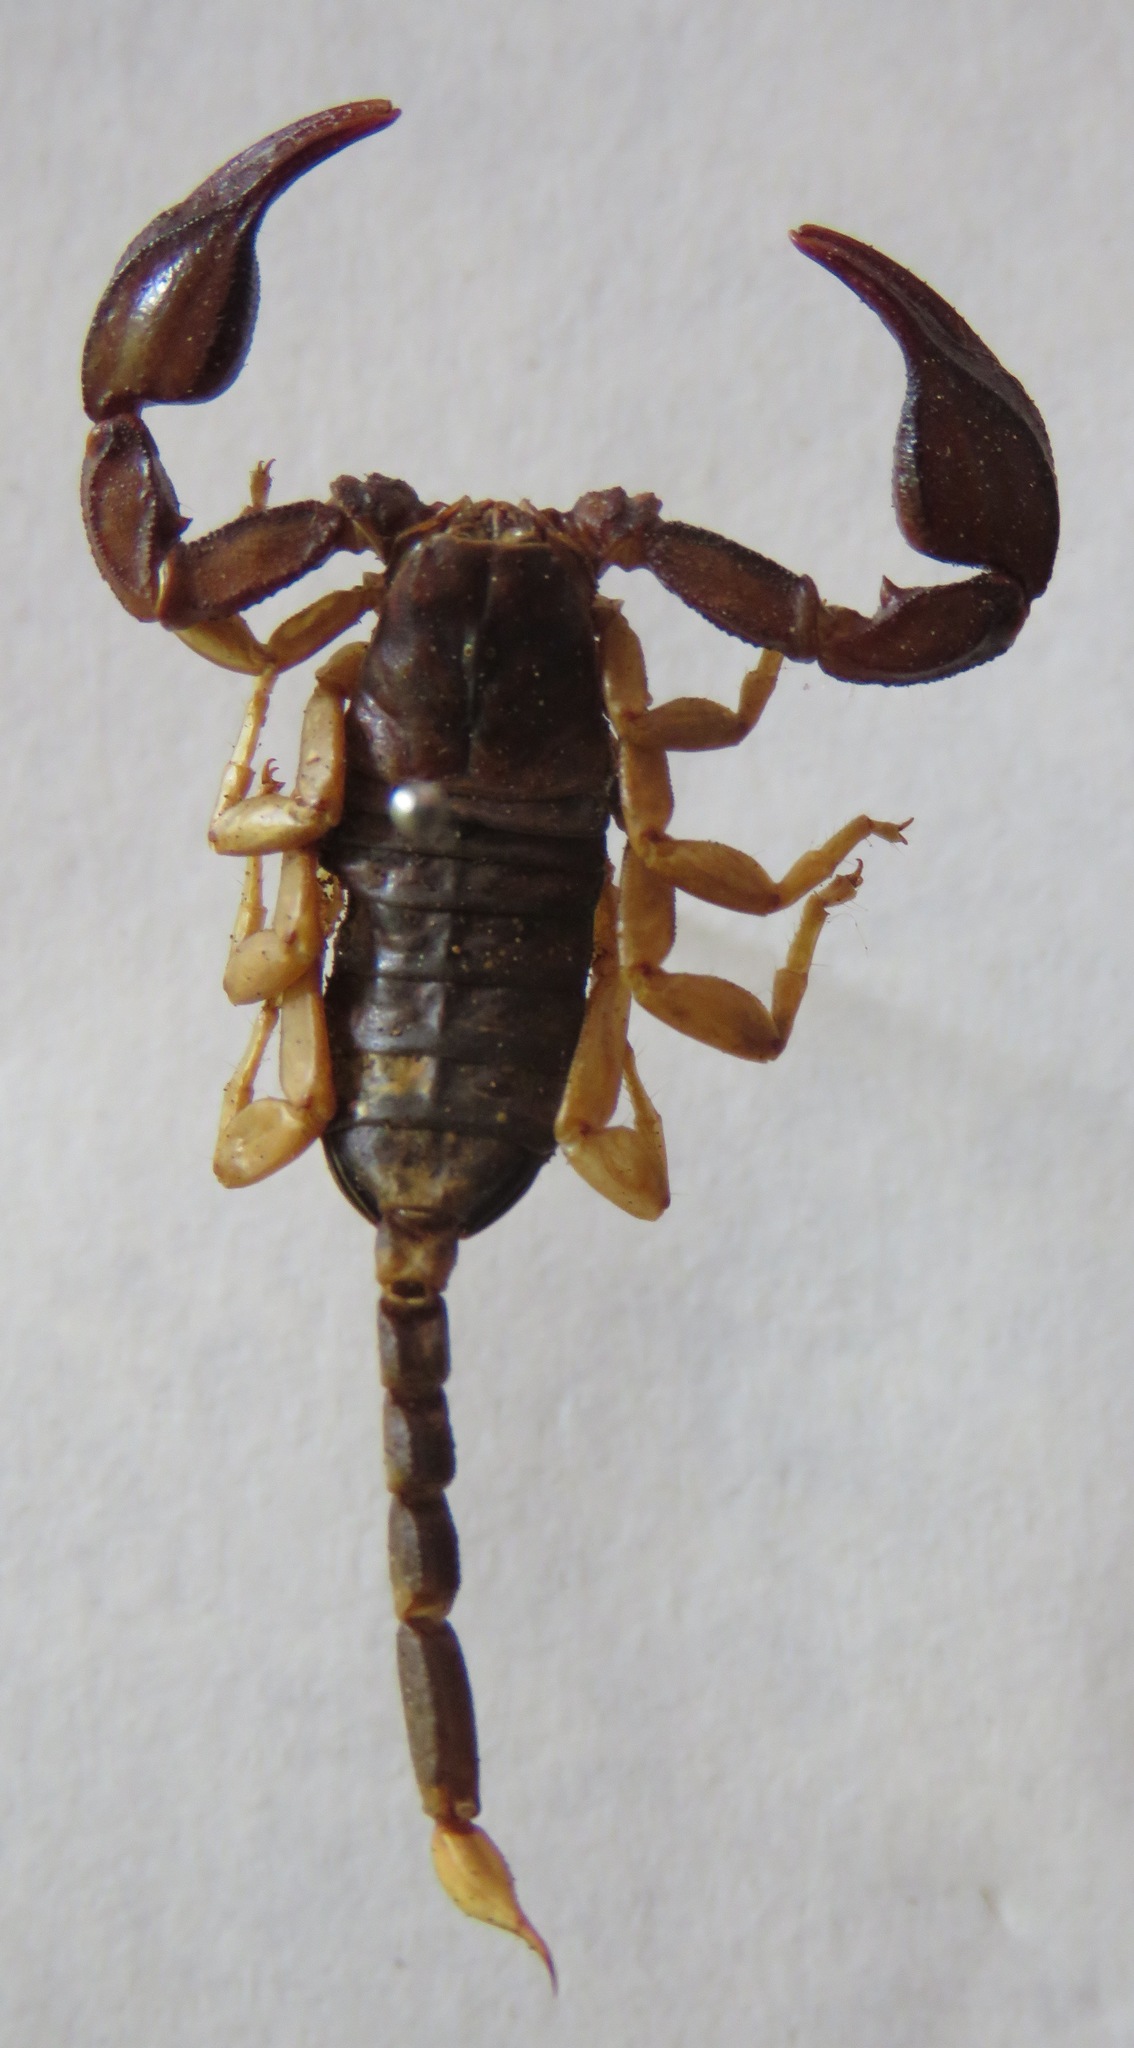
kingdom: Animalia
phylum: Arthropoda
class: Arachnida
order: Scorpiones
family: Euscorpiidae
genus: Euscorpius
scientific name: Euscorpius flavicaudis
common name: European yellow-tailed scorpion
